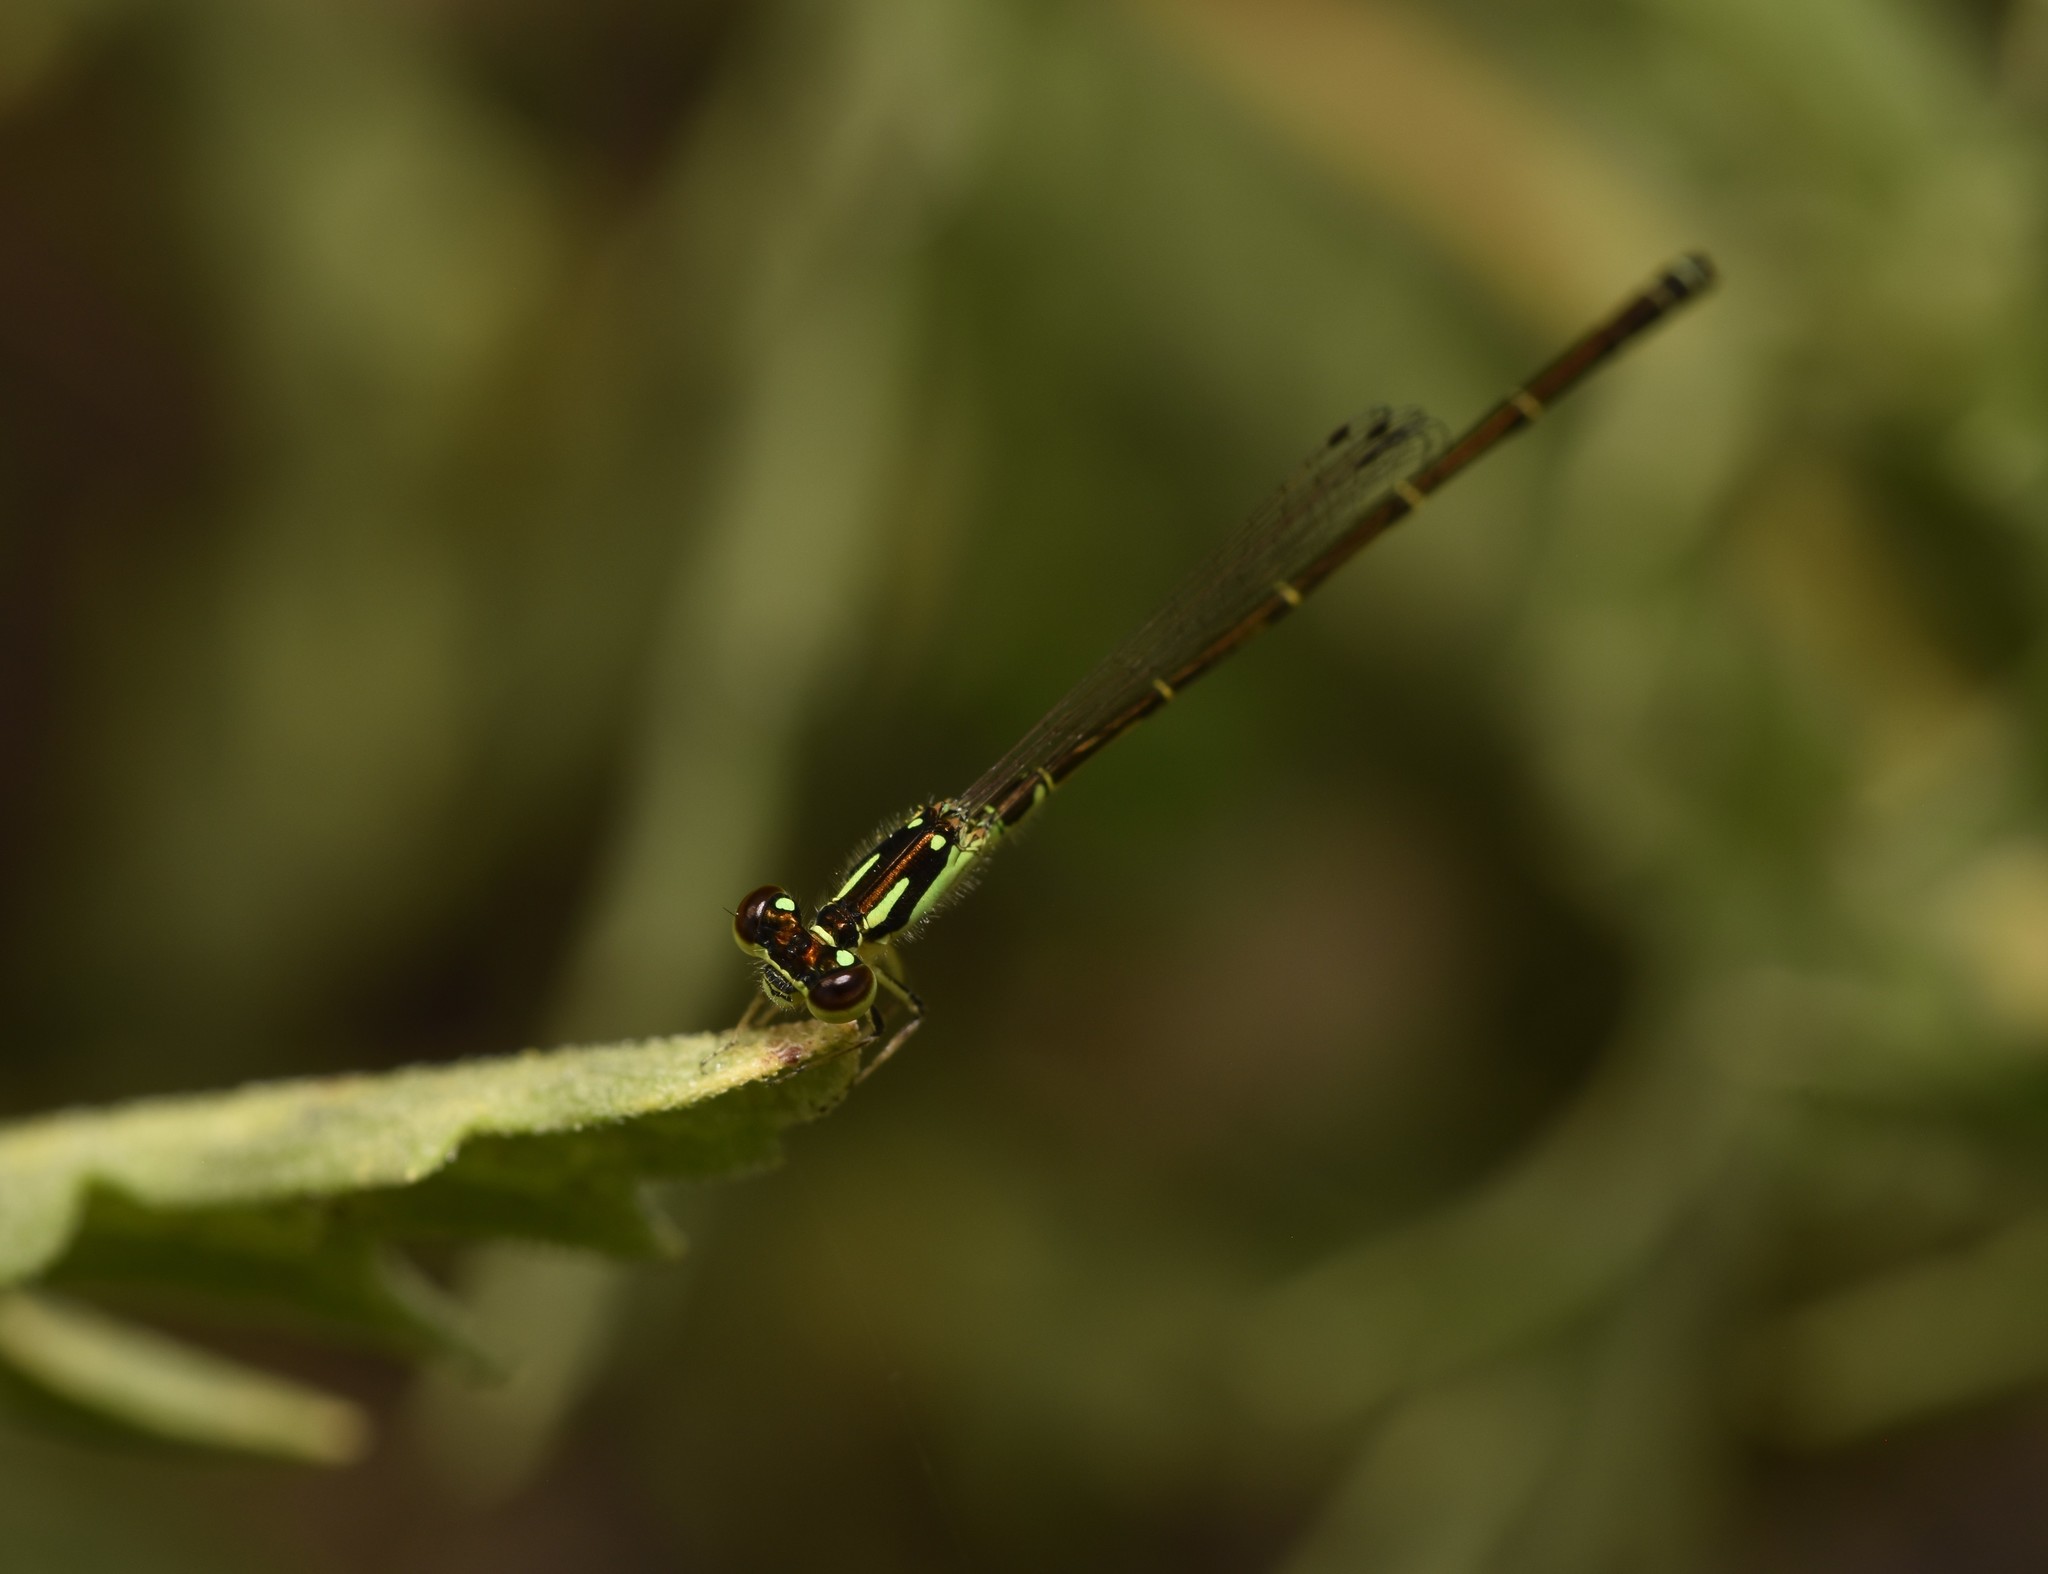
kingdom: Animalia
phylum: Arthropoda
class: Insecta
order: Odonata
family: Coenagrionidae
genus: Ischnura
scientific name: Ischnura posita
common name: Fragile forktail
